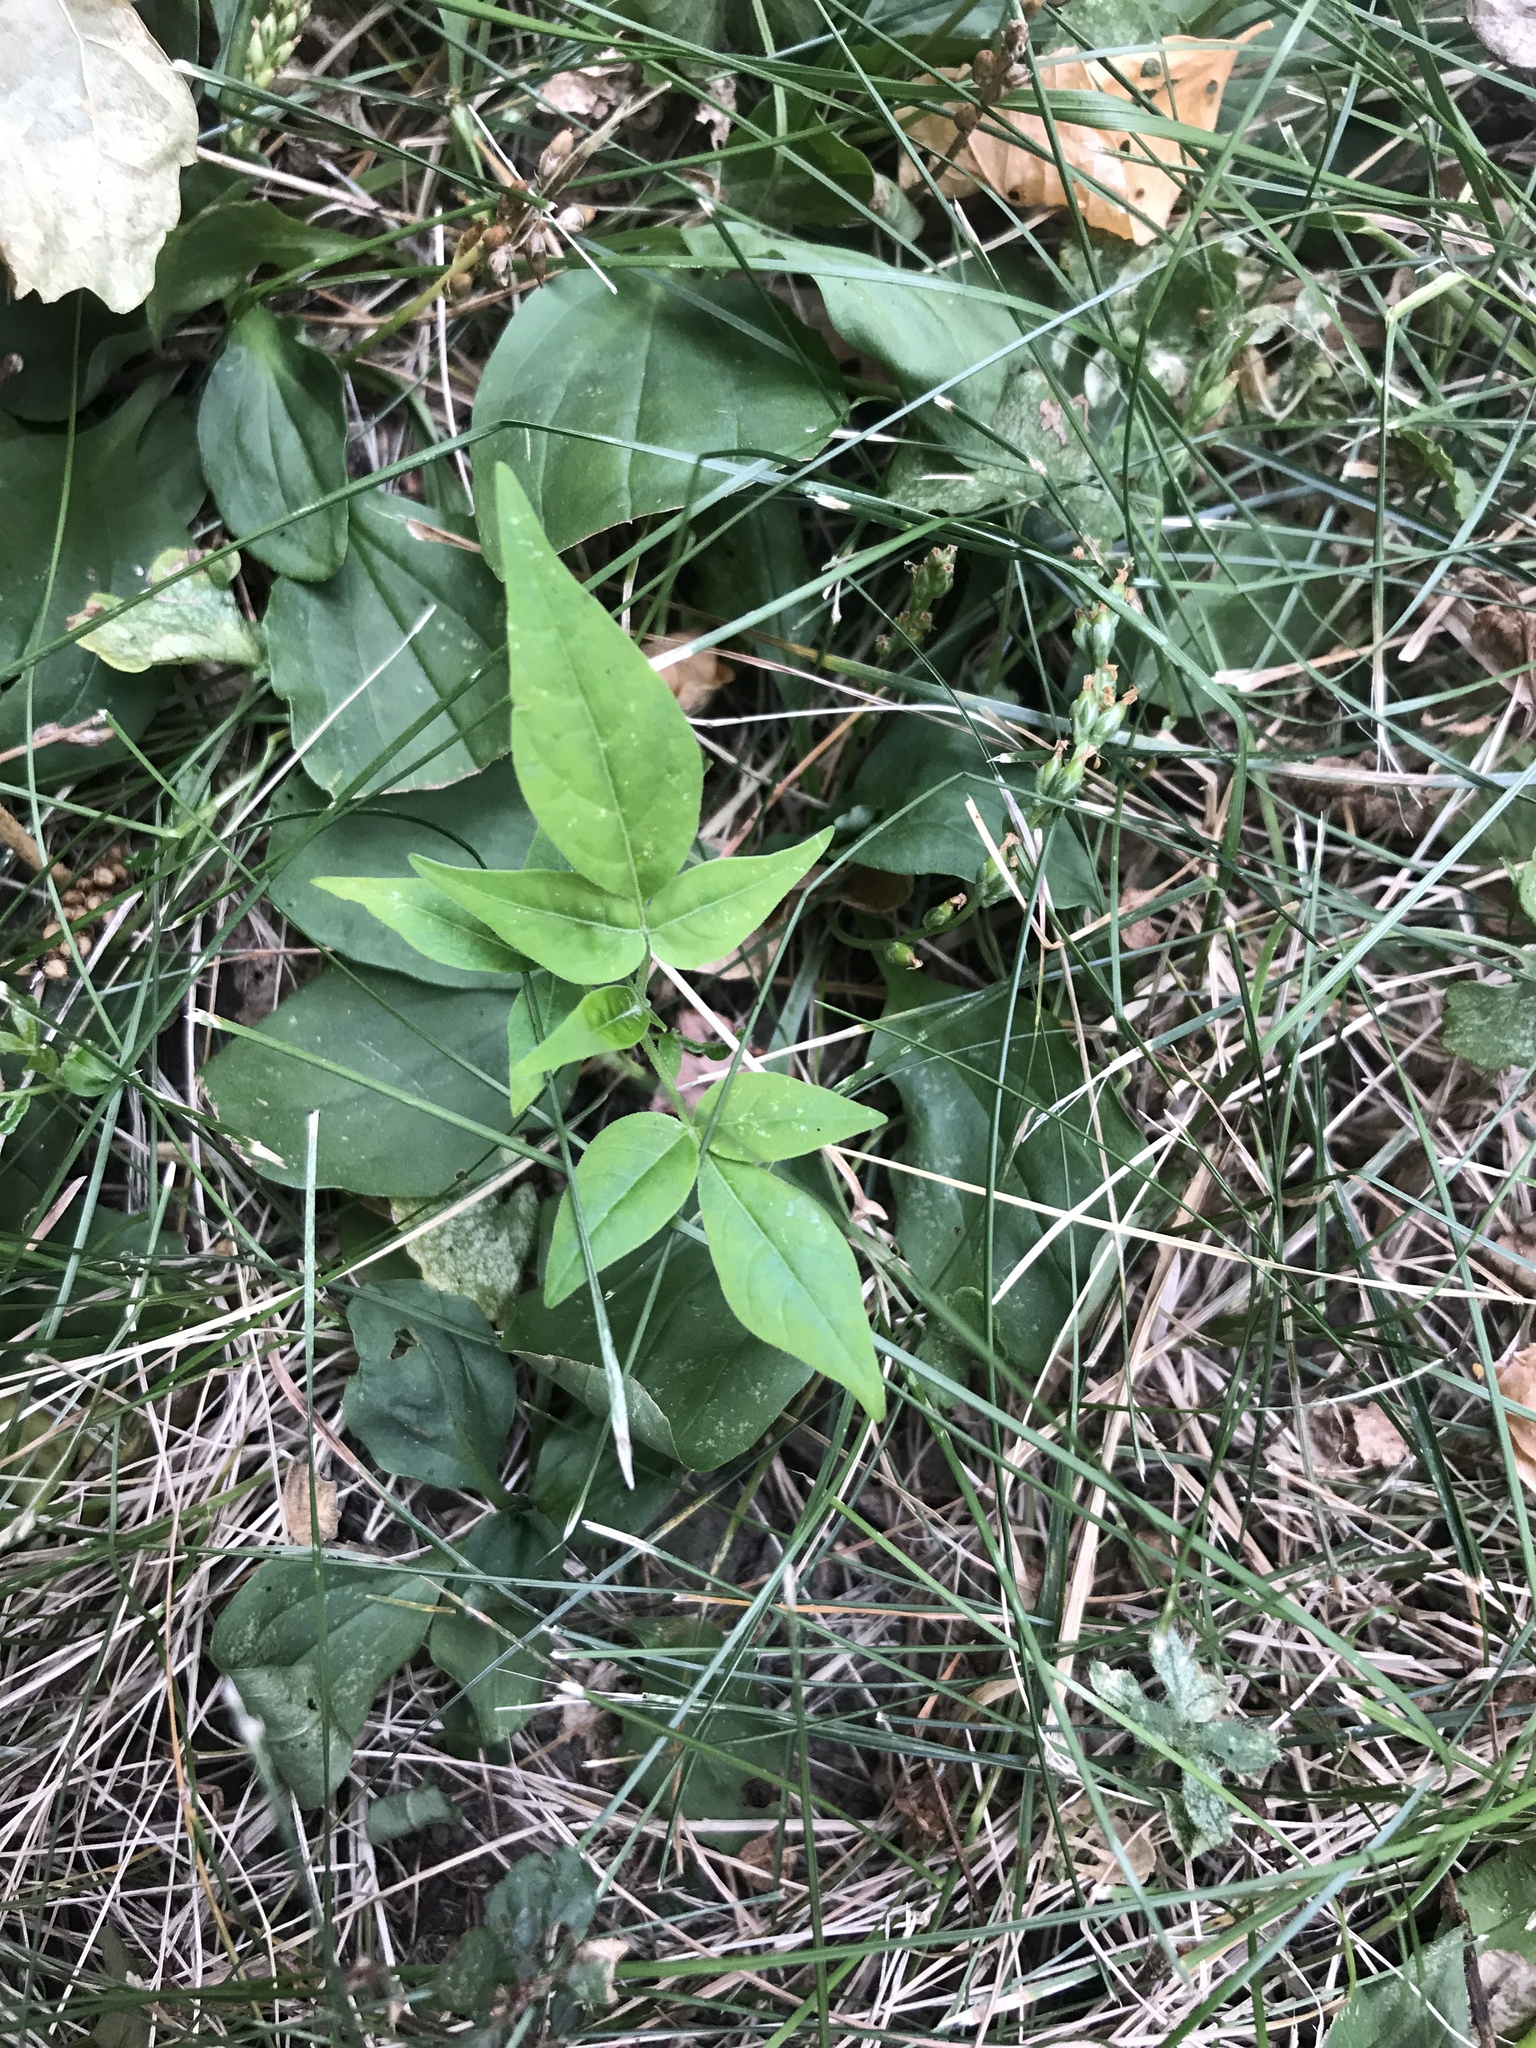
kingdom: Plantae
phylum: Tracheophyta
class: Magnoliopsida
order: Sapindales
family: Simaroubaceae
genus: Ailanthus
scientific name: Ailanthus altissima
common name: Tree-of-heaven
